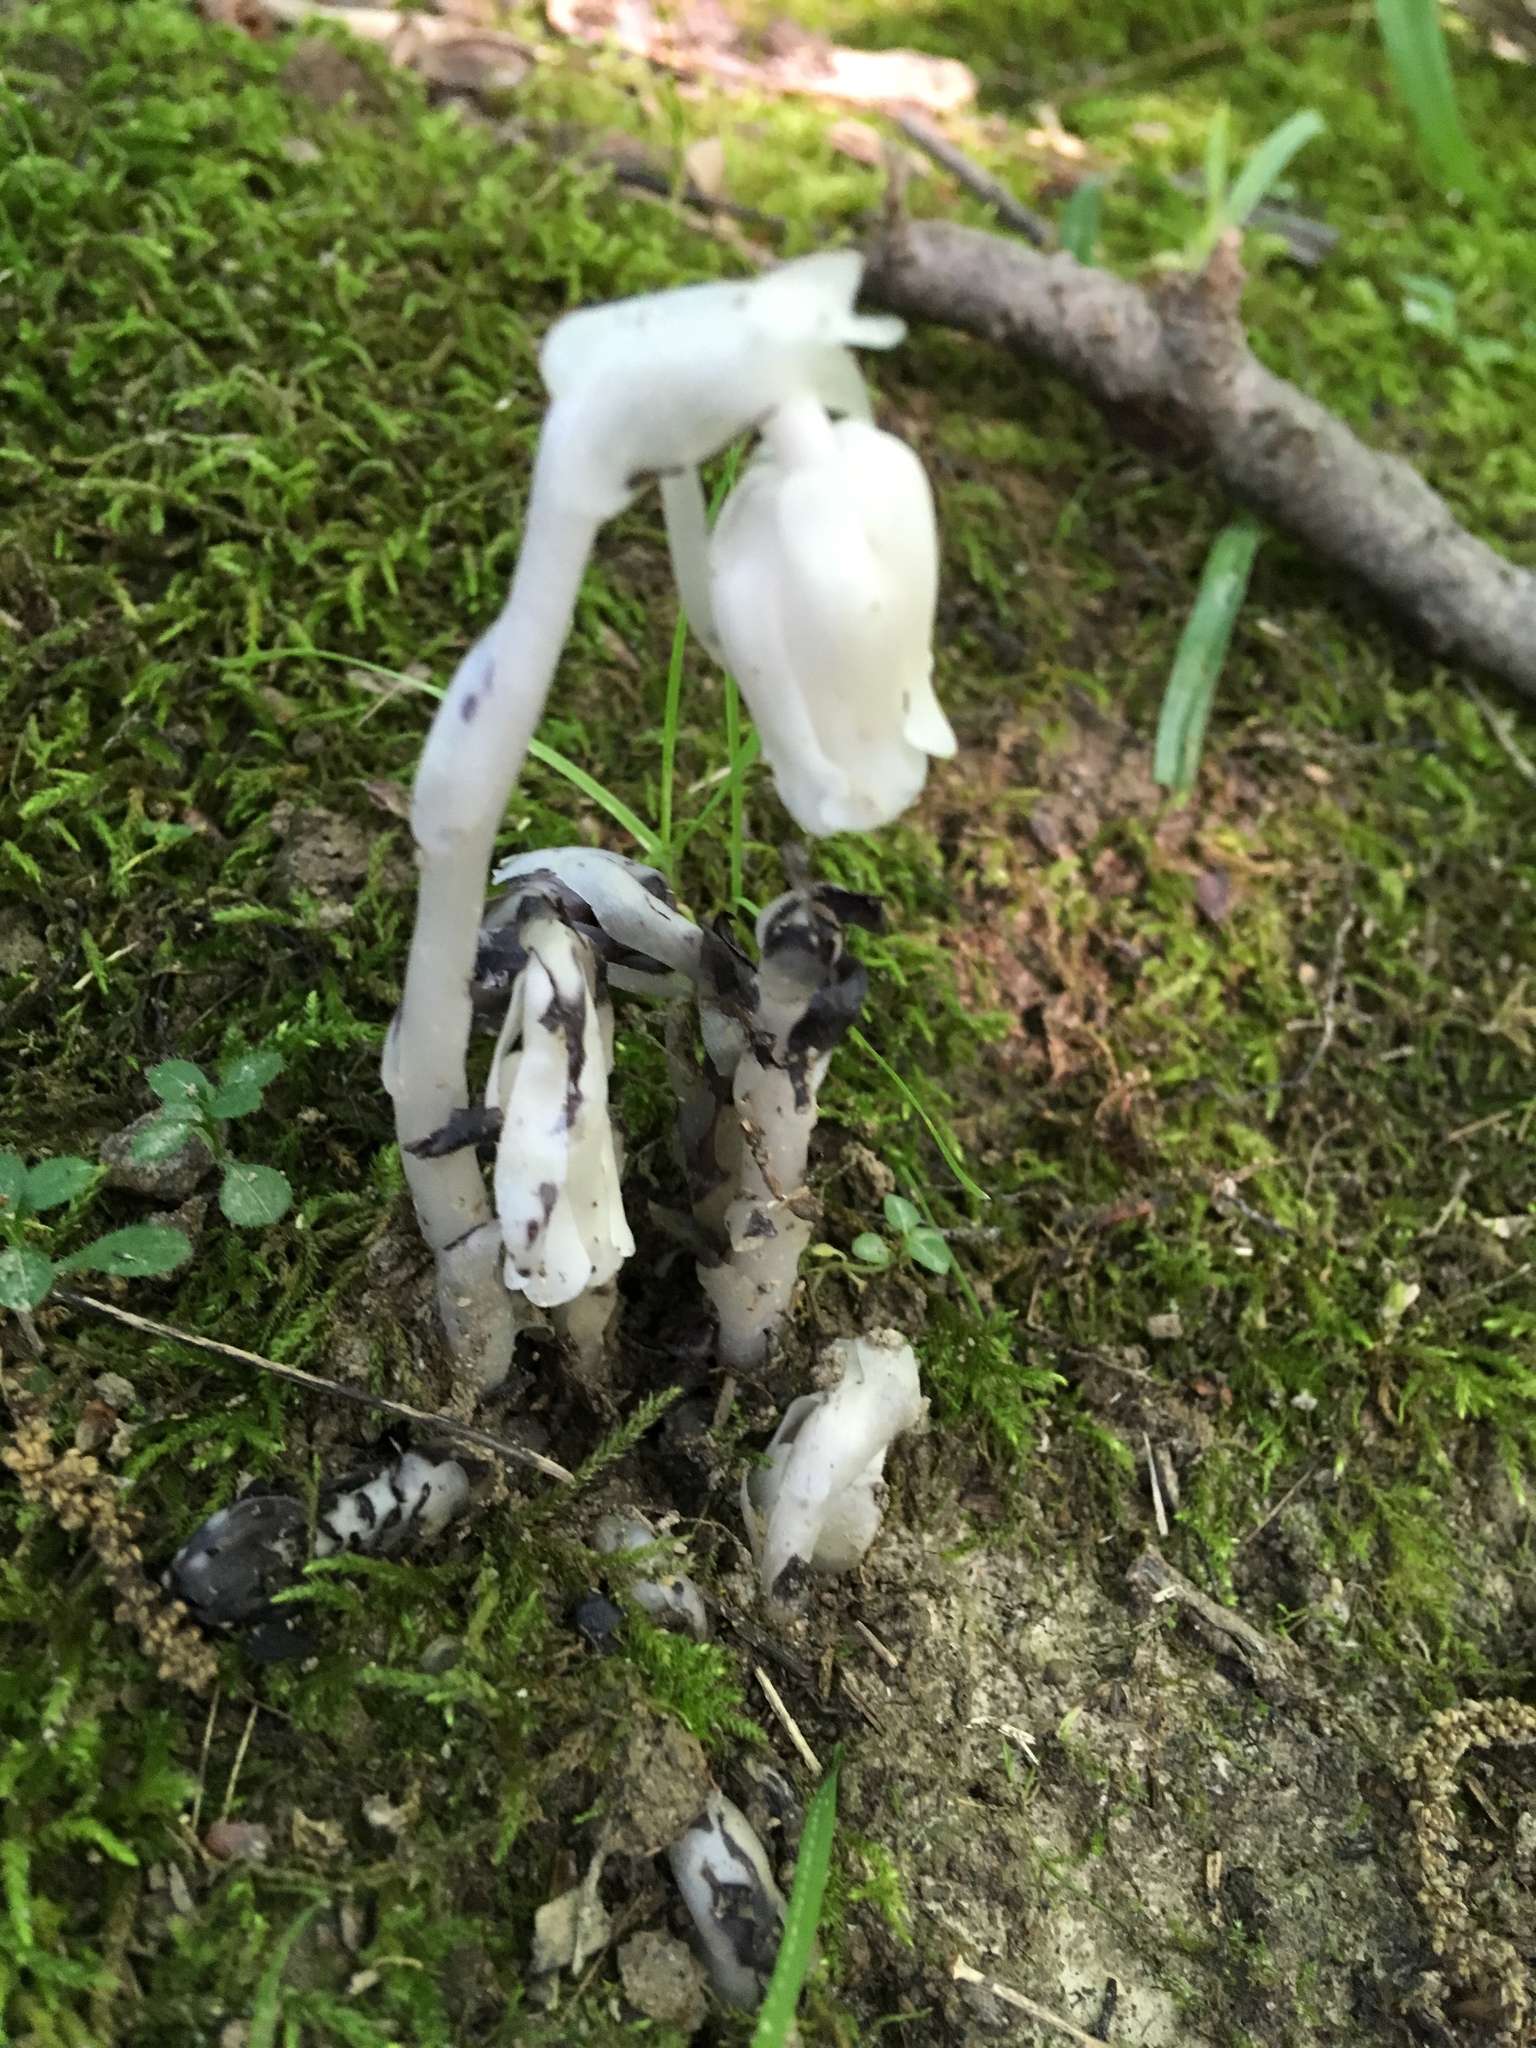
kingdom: Plantae
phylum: Tracheophyta
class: Magnoliopsida
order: Ericales
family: Ericaceae
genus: Monotropa
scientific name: Monotropa uniflora
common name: Convulsion root
